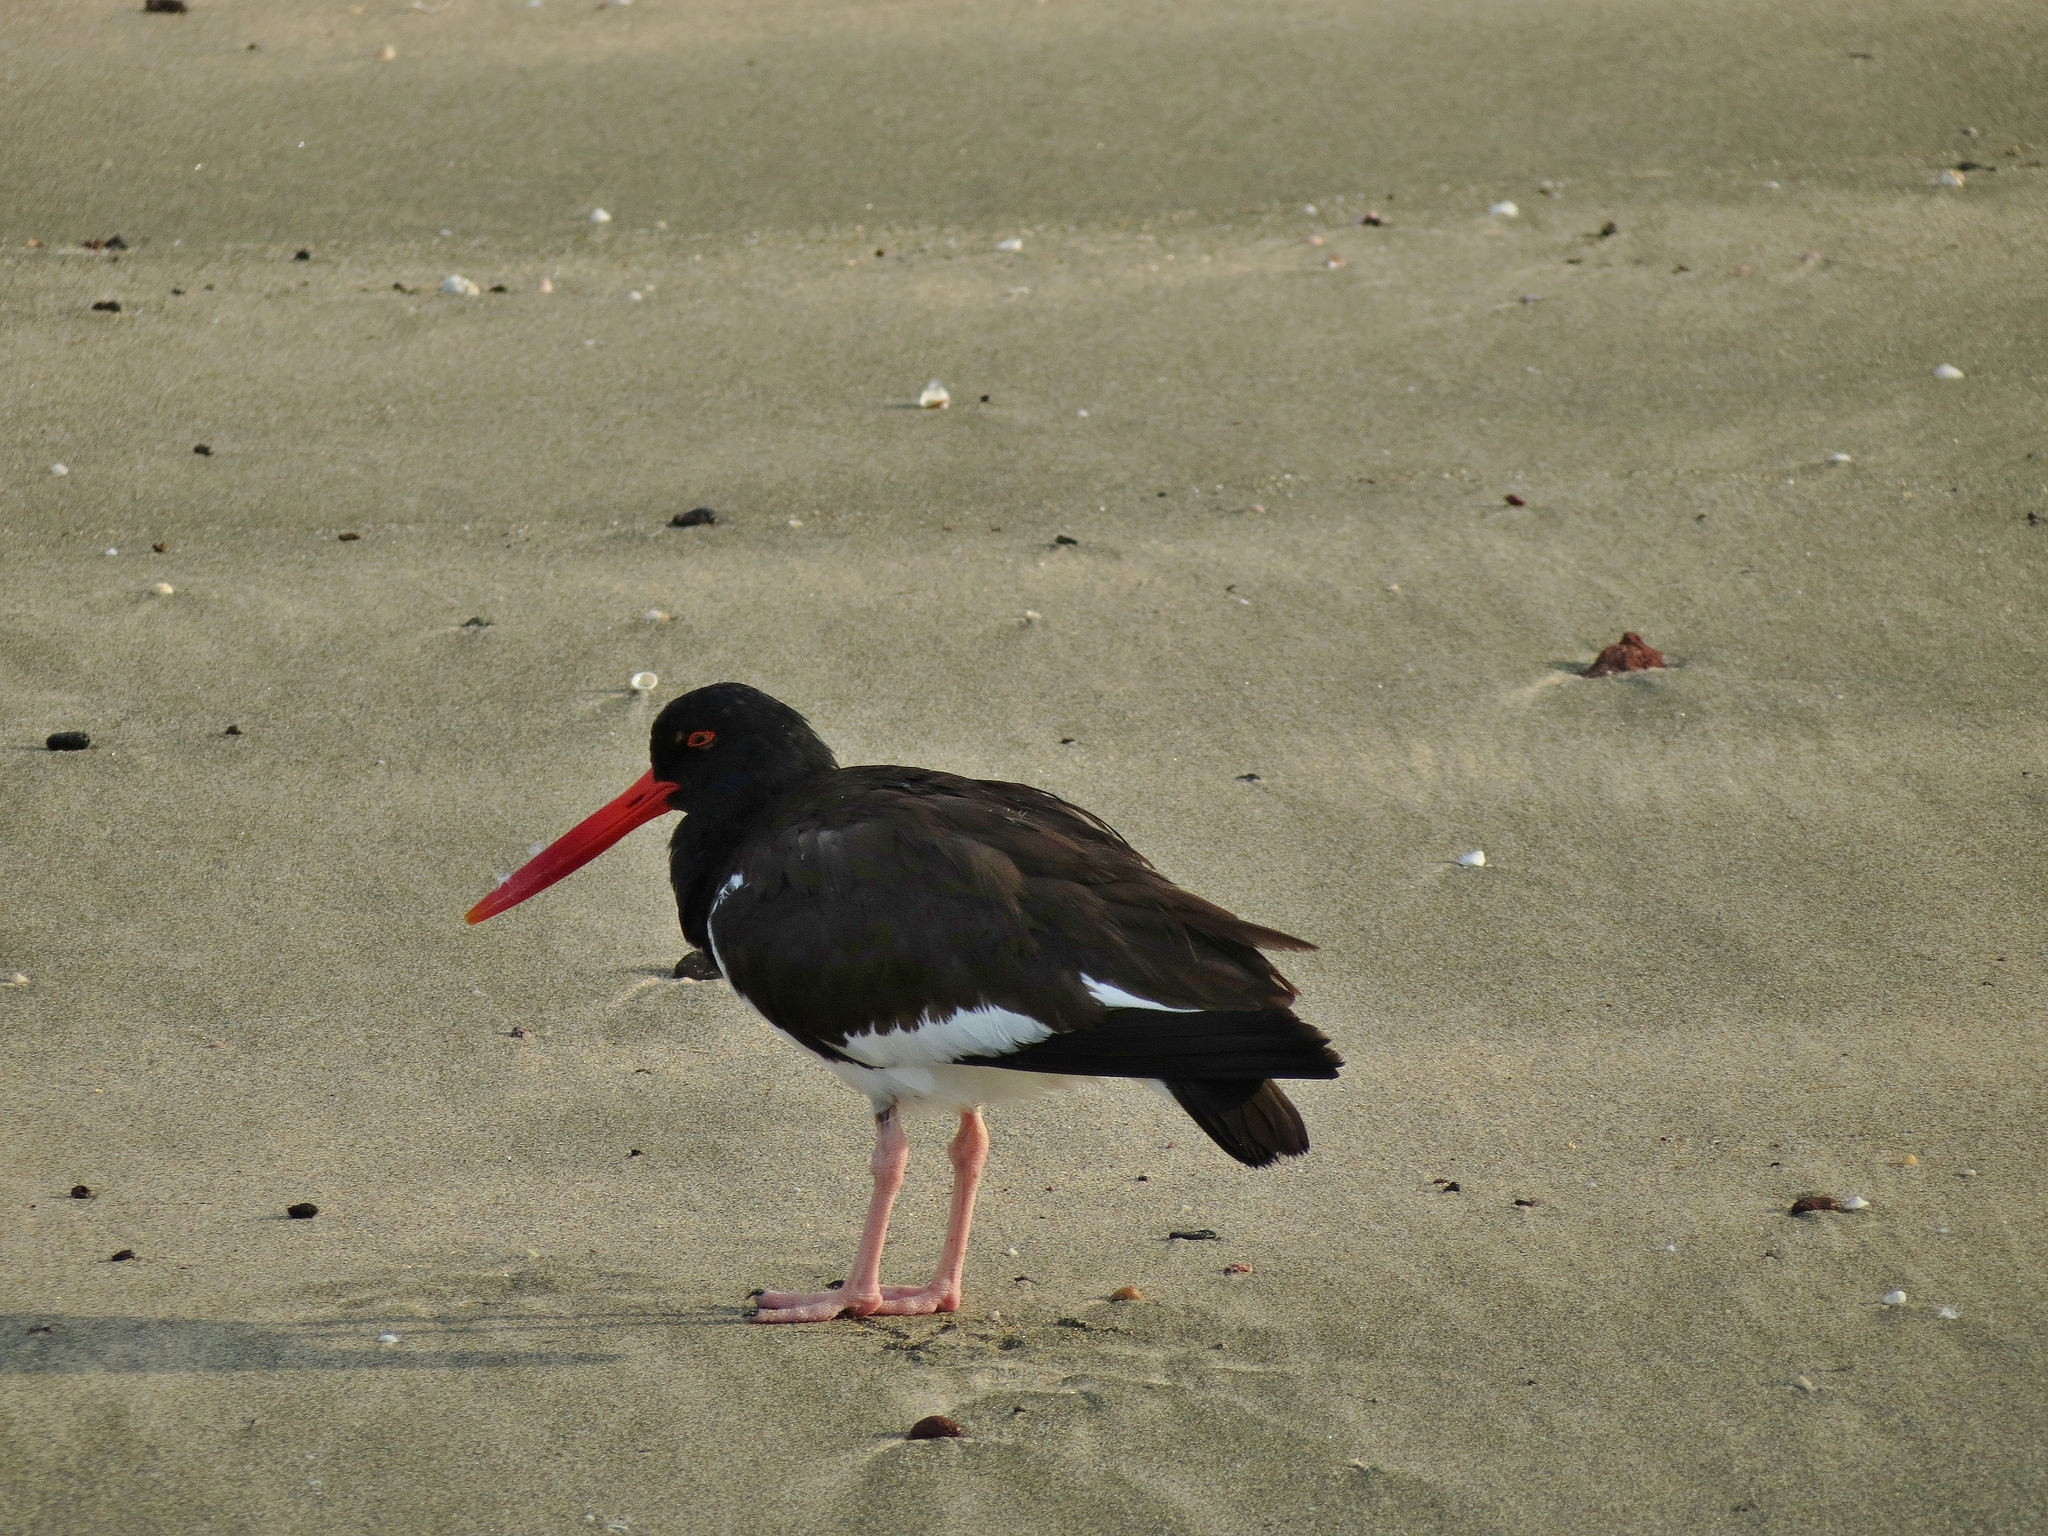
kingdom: Animalia
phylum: Chordata
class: Aves
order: Charadriiformes
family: Haematopodidae
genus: Haematopus
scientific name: Haematopus palliatus
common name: American oystercatcher
